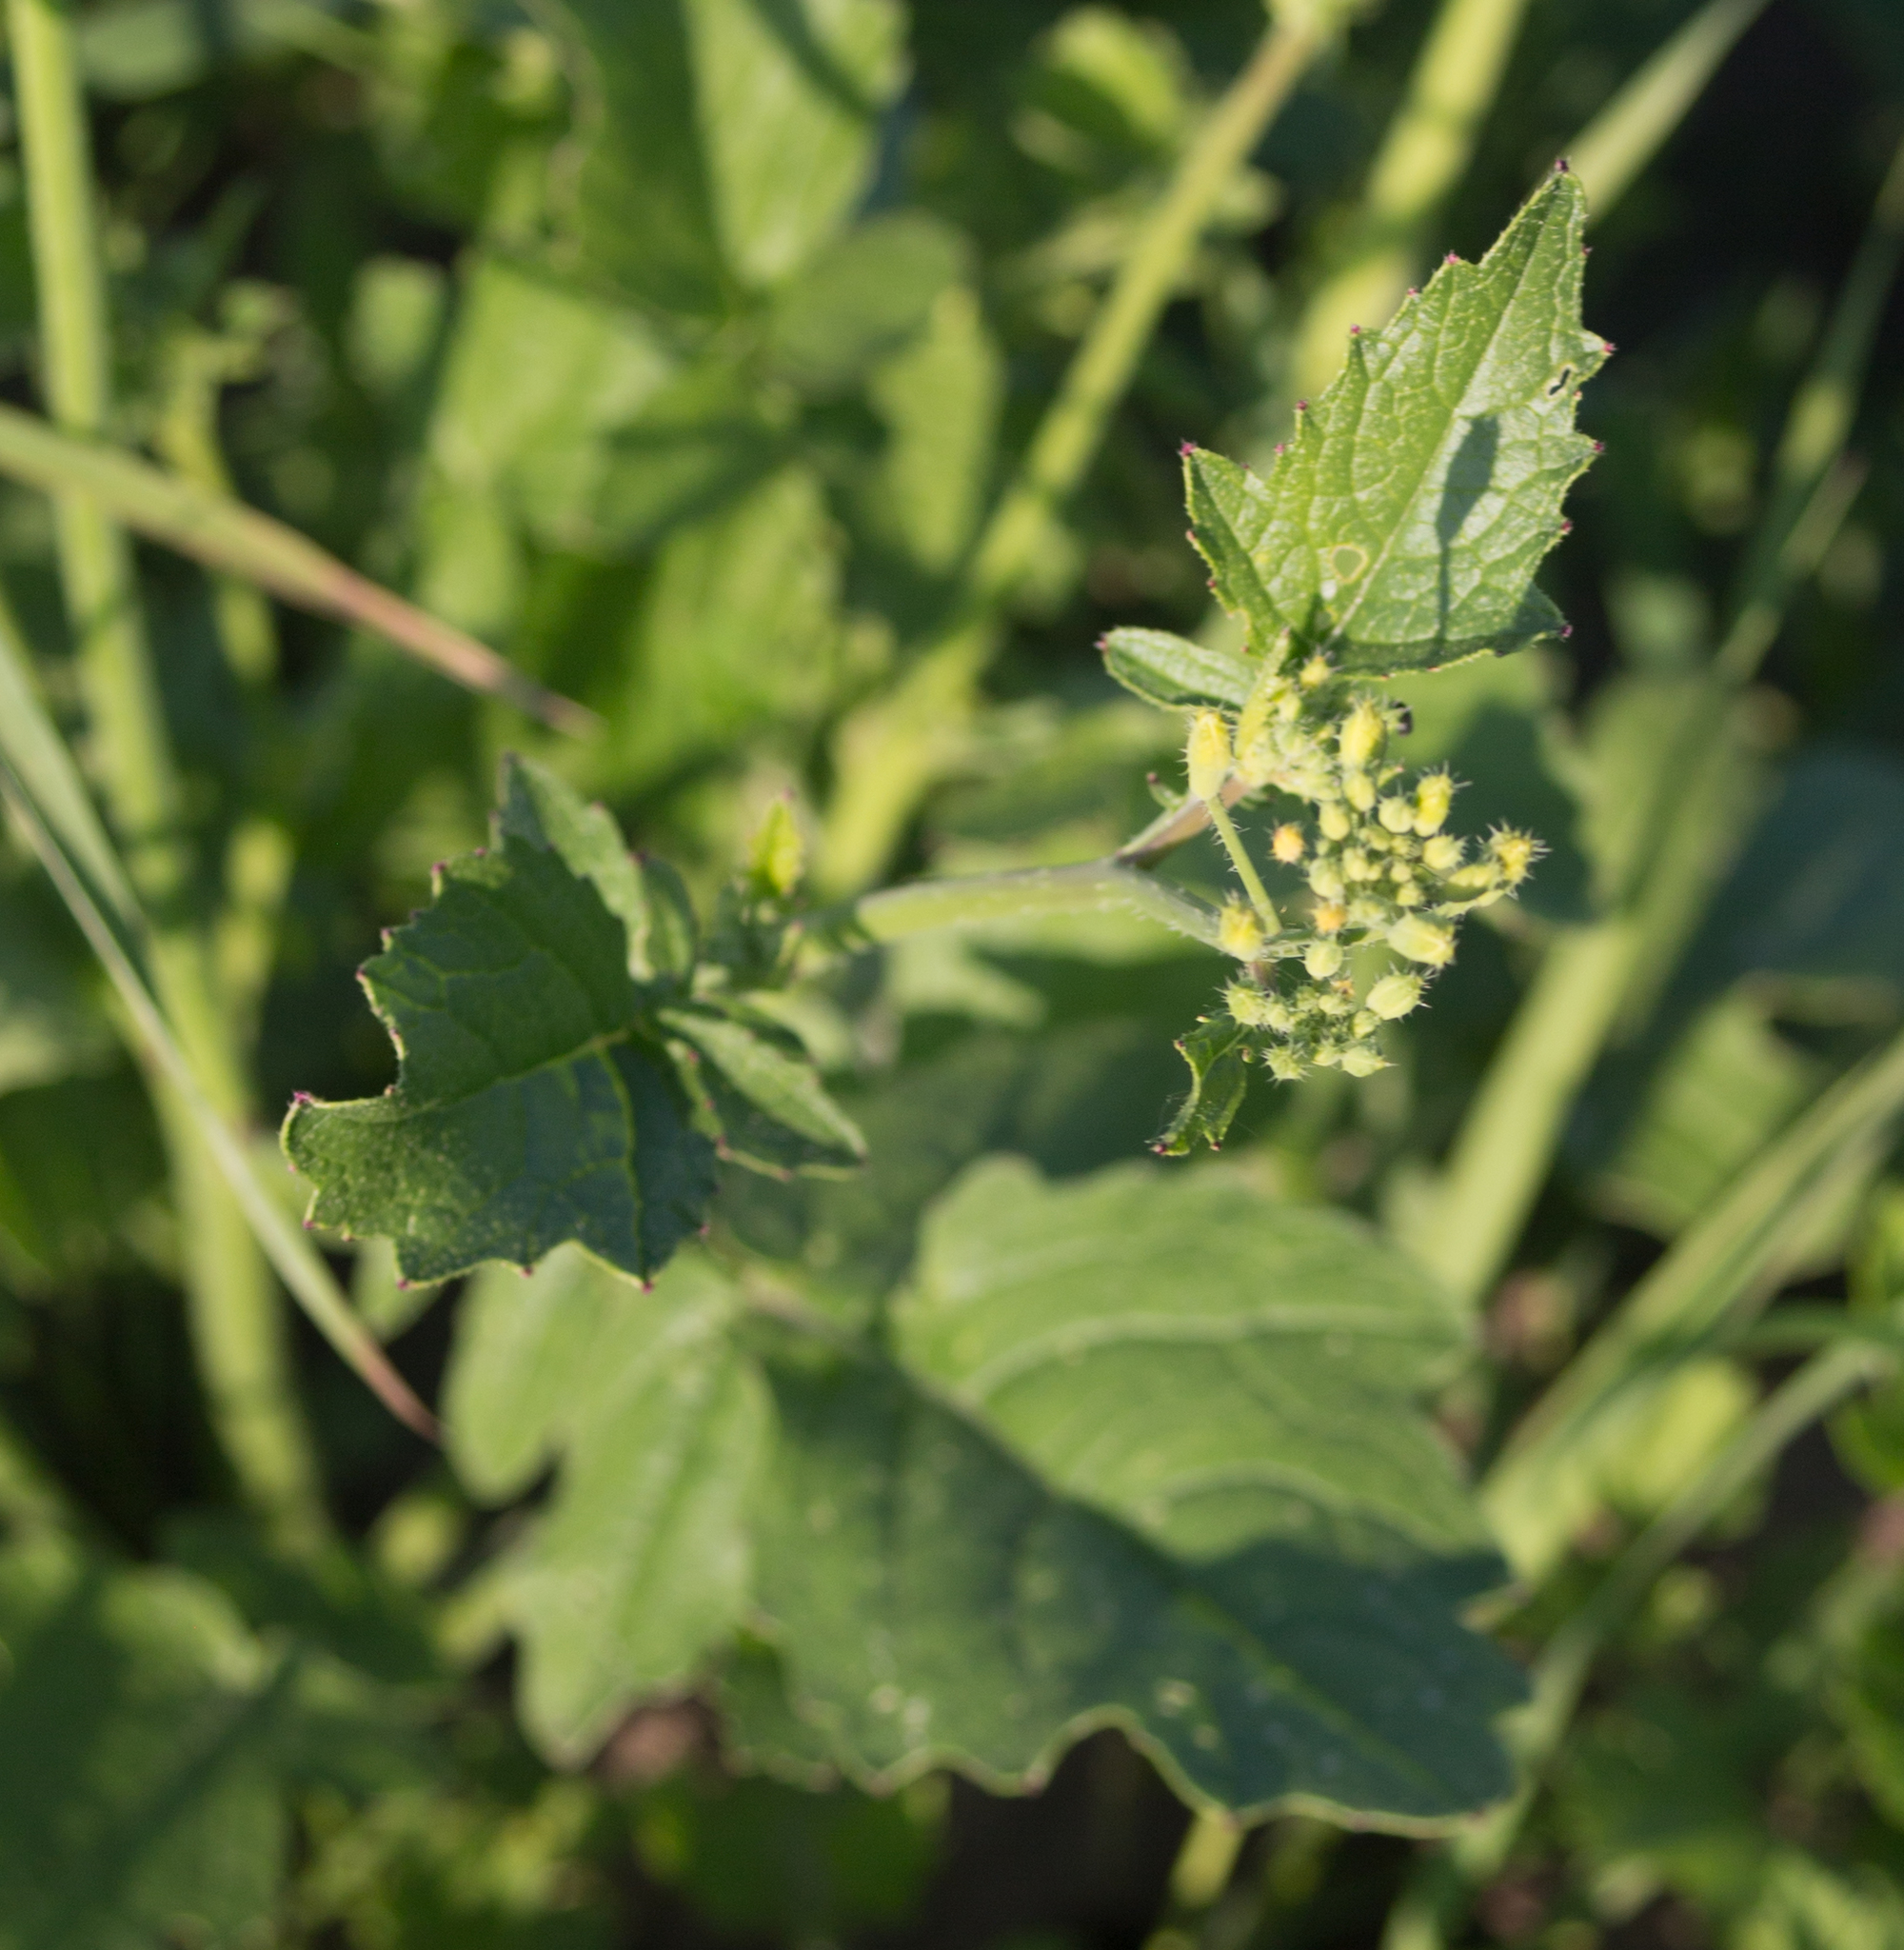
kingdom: Plantae
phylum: Tracheophyta
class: Magnoliopsida
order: Brassicales
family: Brassicaceae
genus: Raphanus
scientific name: Raphanus raphanistrum
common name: Wild radish
